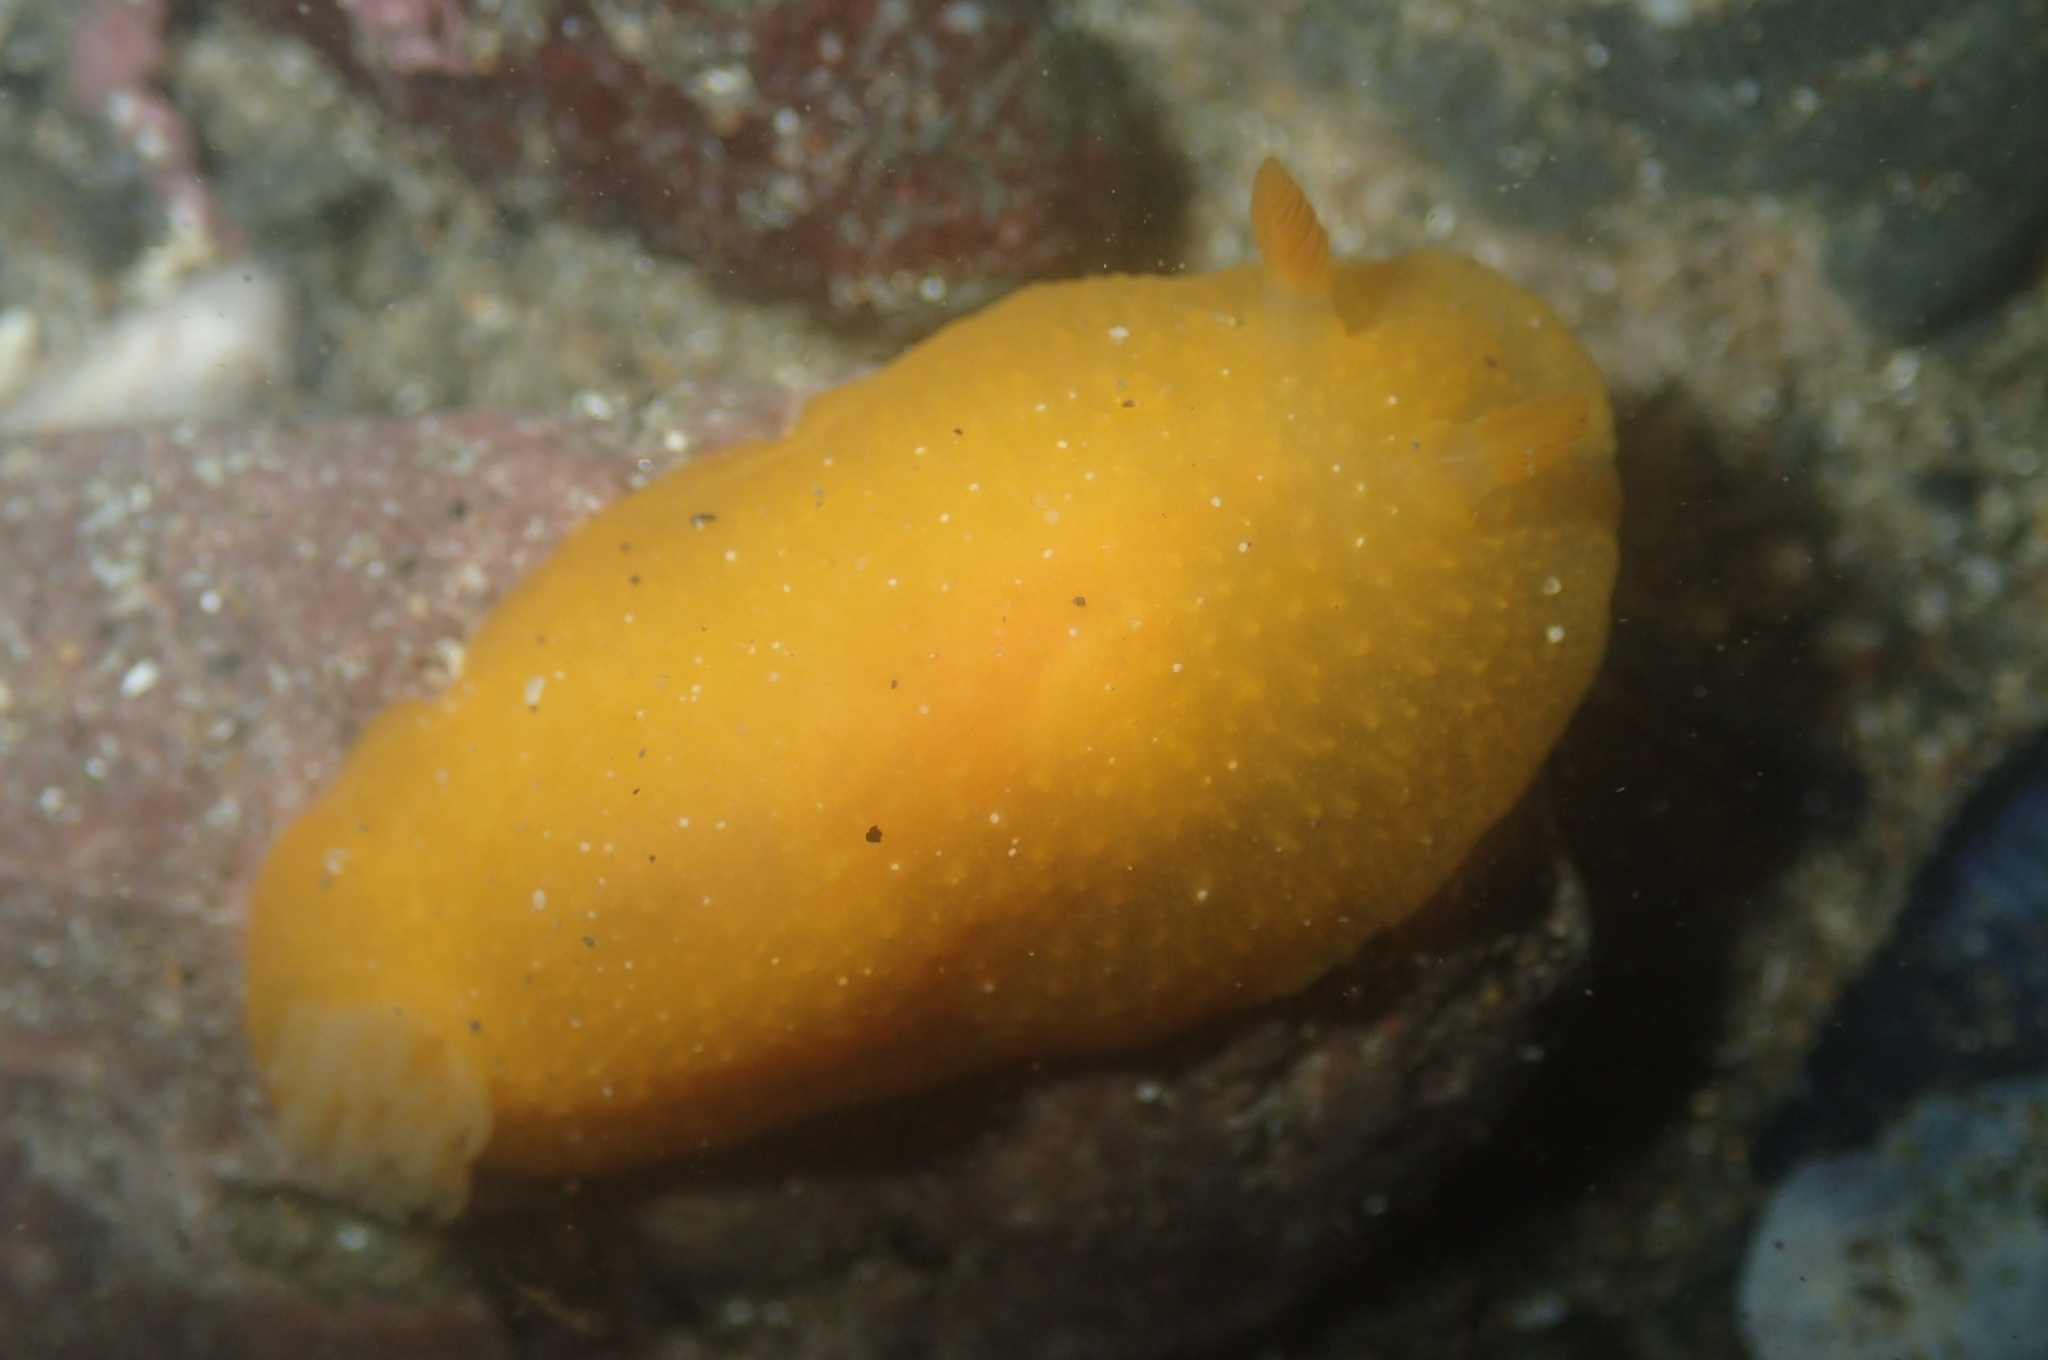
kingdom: Animalia
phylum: Mollusca
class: Gastropoda
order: Nudibranchia
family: Dendrodorididae
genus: Doriopsilla
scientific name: Doriopsilla fulva
